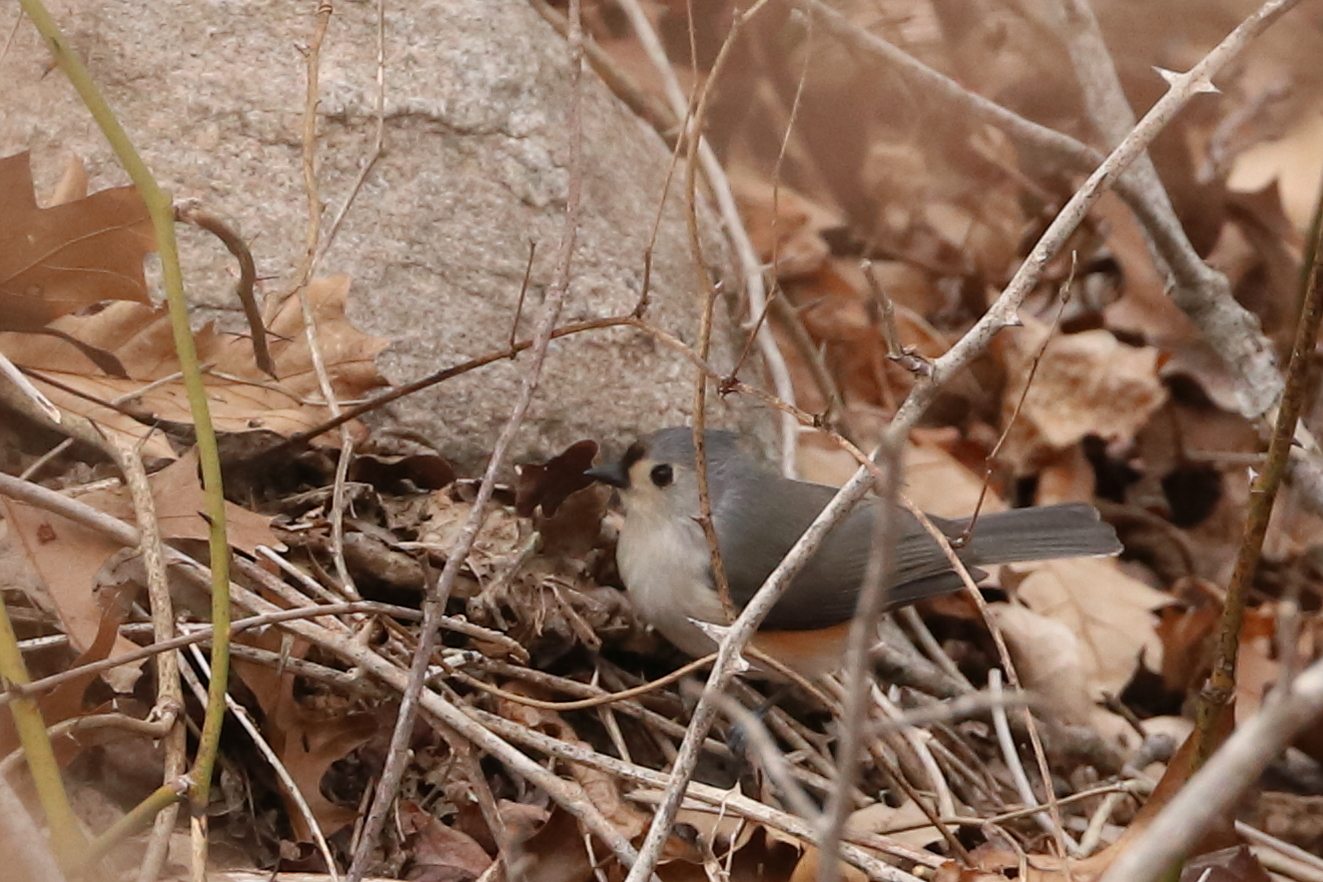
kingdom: Animalia
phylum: Chordata
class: Aves
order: Passeriformes
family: Paridae
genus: Baeolophus
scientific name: Baeolophus bicolor
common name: Tufted titmouse
